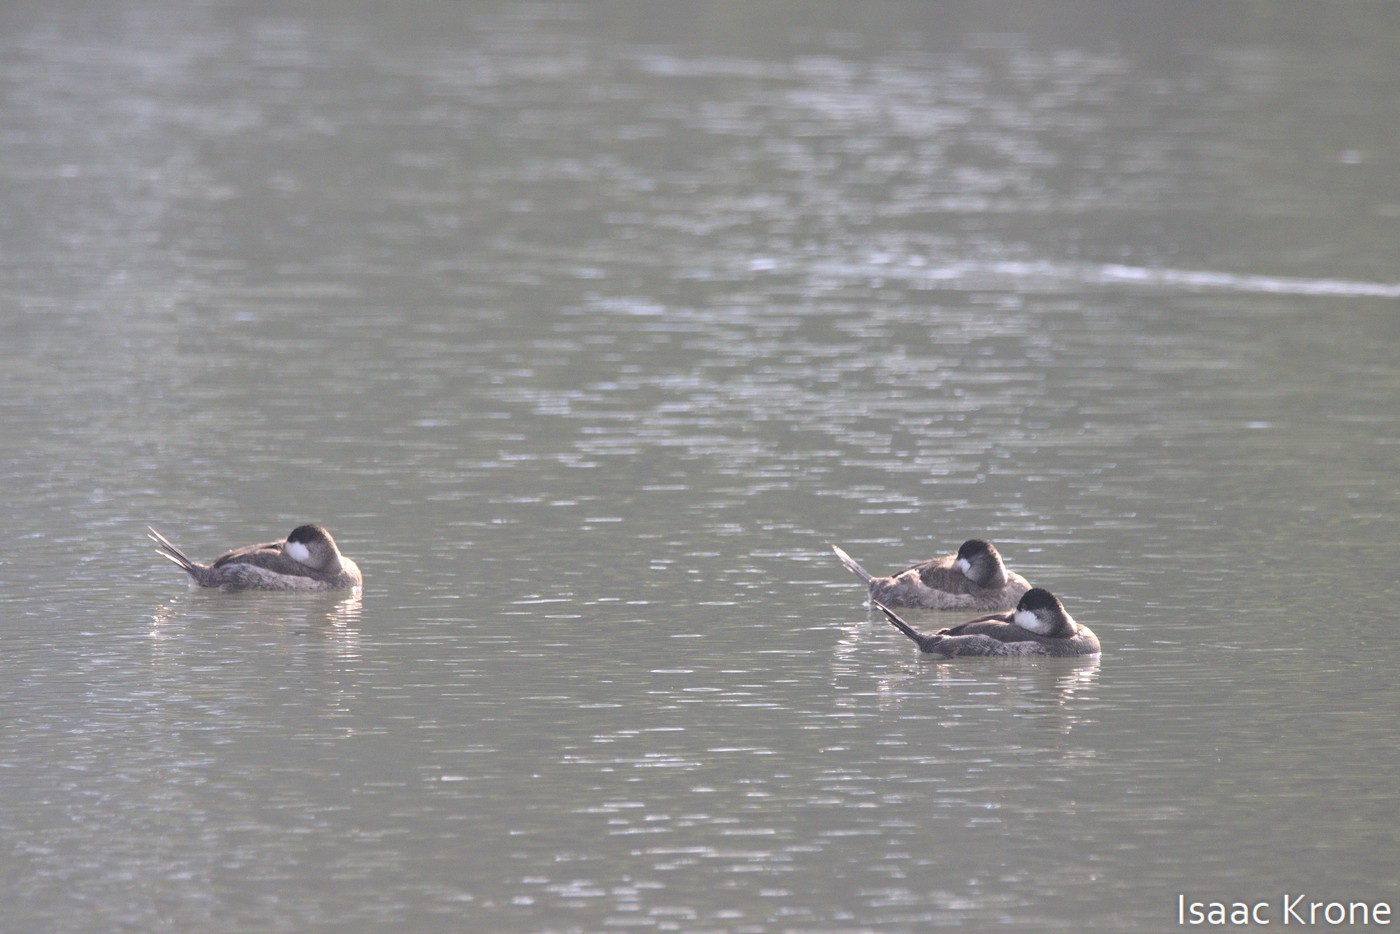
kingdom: Animalia
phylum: Chordata
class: Aves
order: Anseriformes
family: Anatidae
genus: Oxyura
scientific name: Oxyura jamaicensis
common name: Ruddy duck
